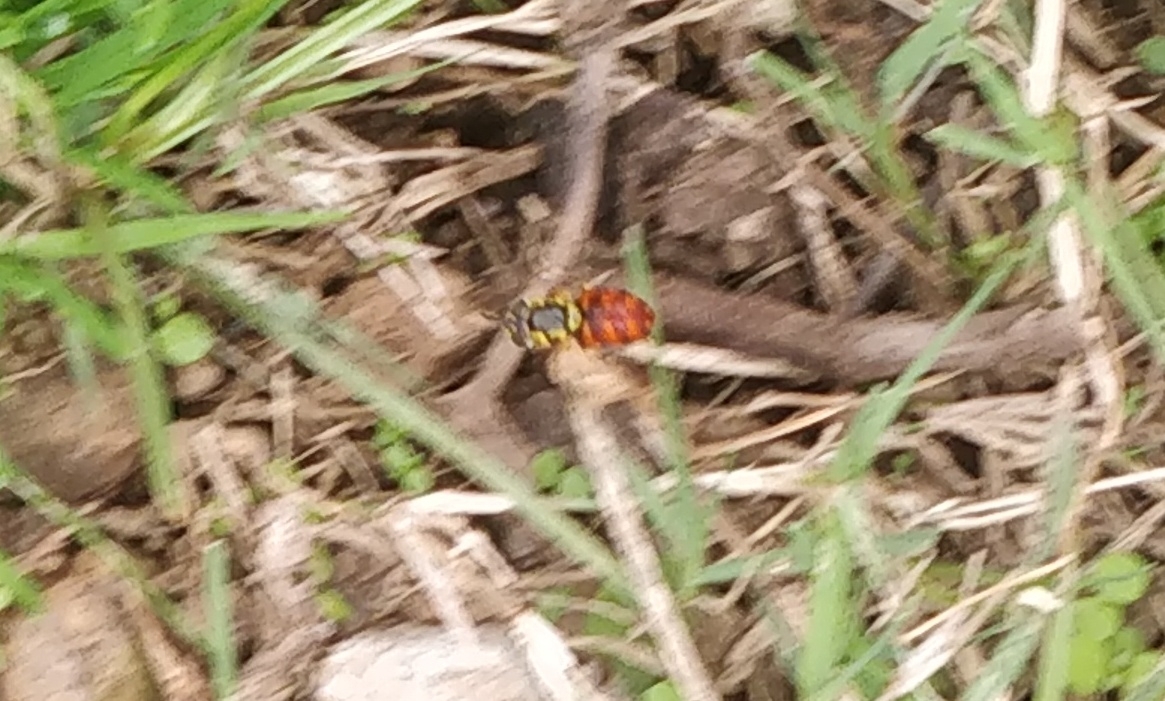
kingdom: Animalia
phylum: Arthropoda
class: Insecta
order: Diptera
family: Syrphidae
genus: Chrysotoxum
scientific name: Chrysotoxum triarcuatum
